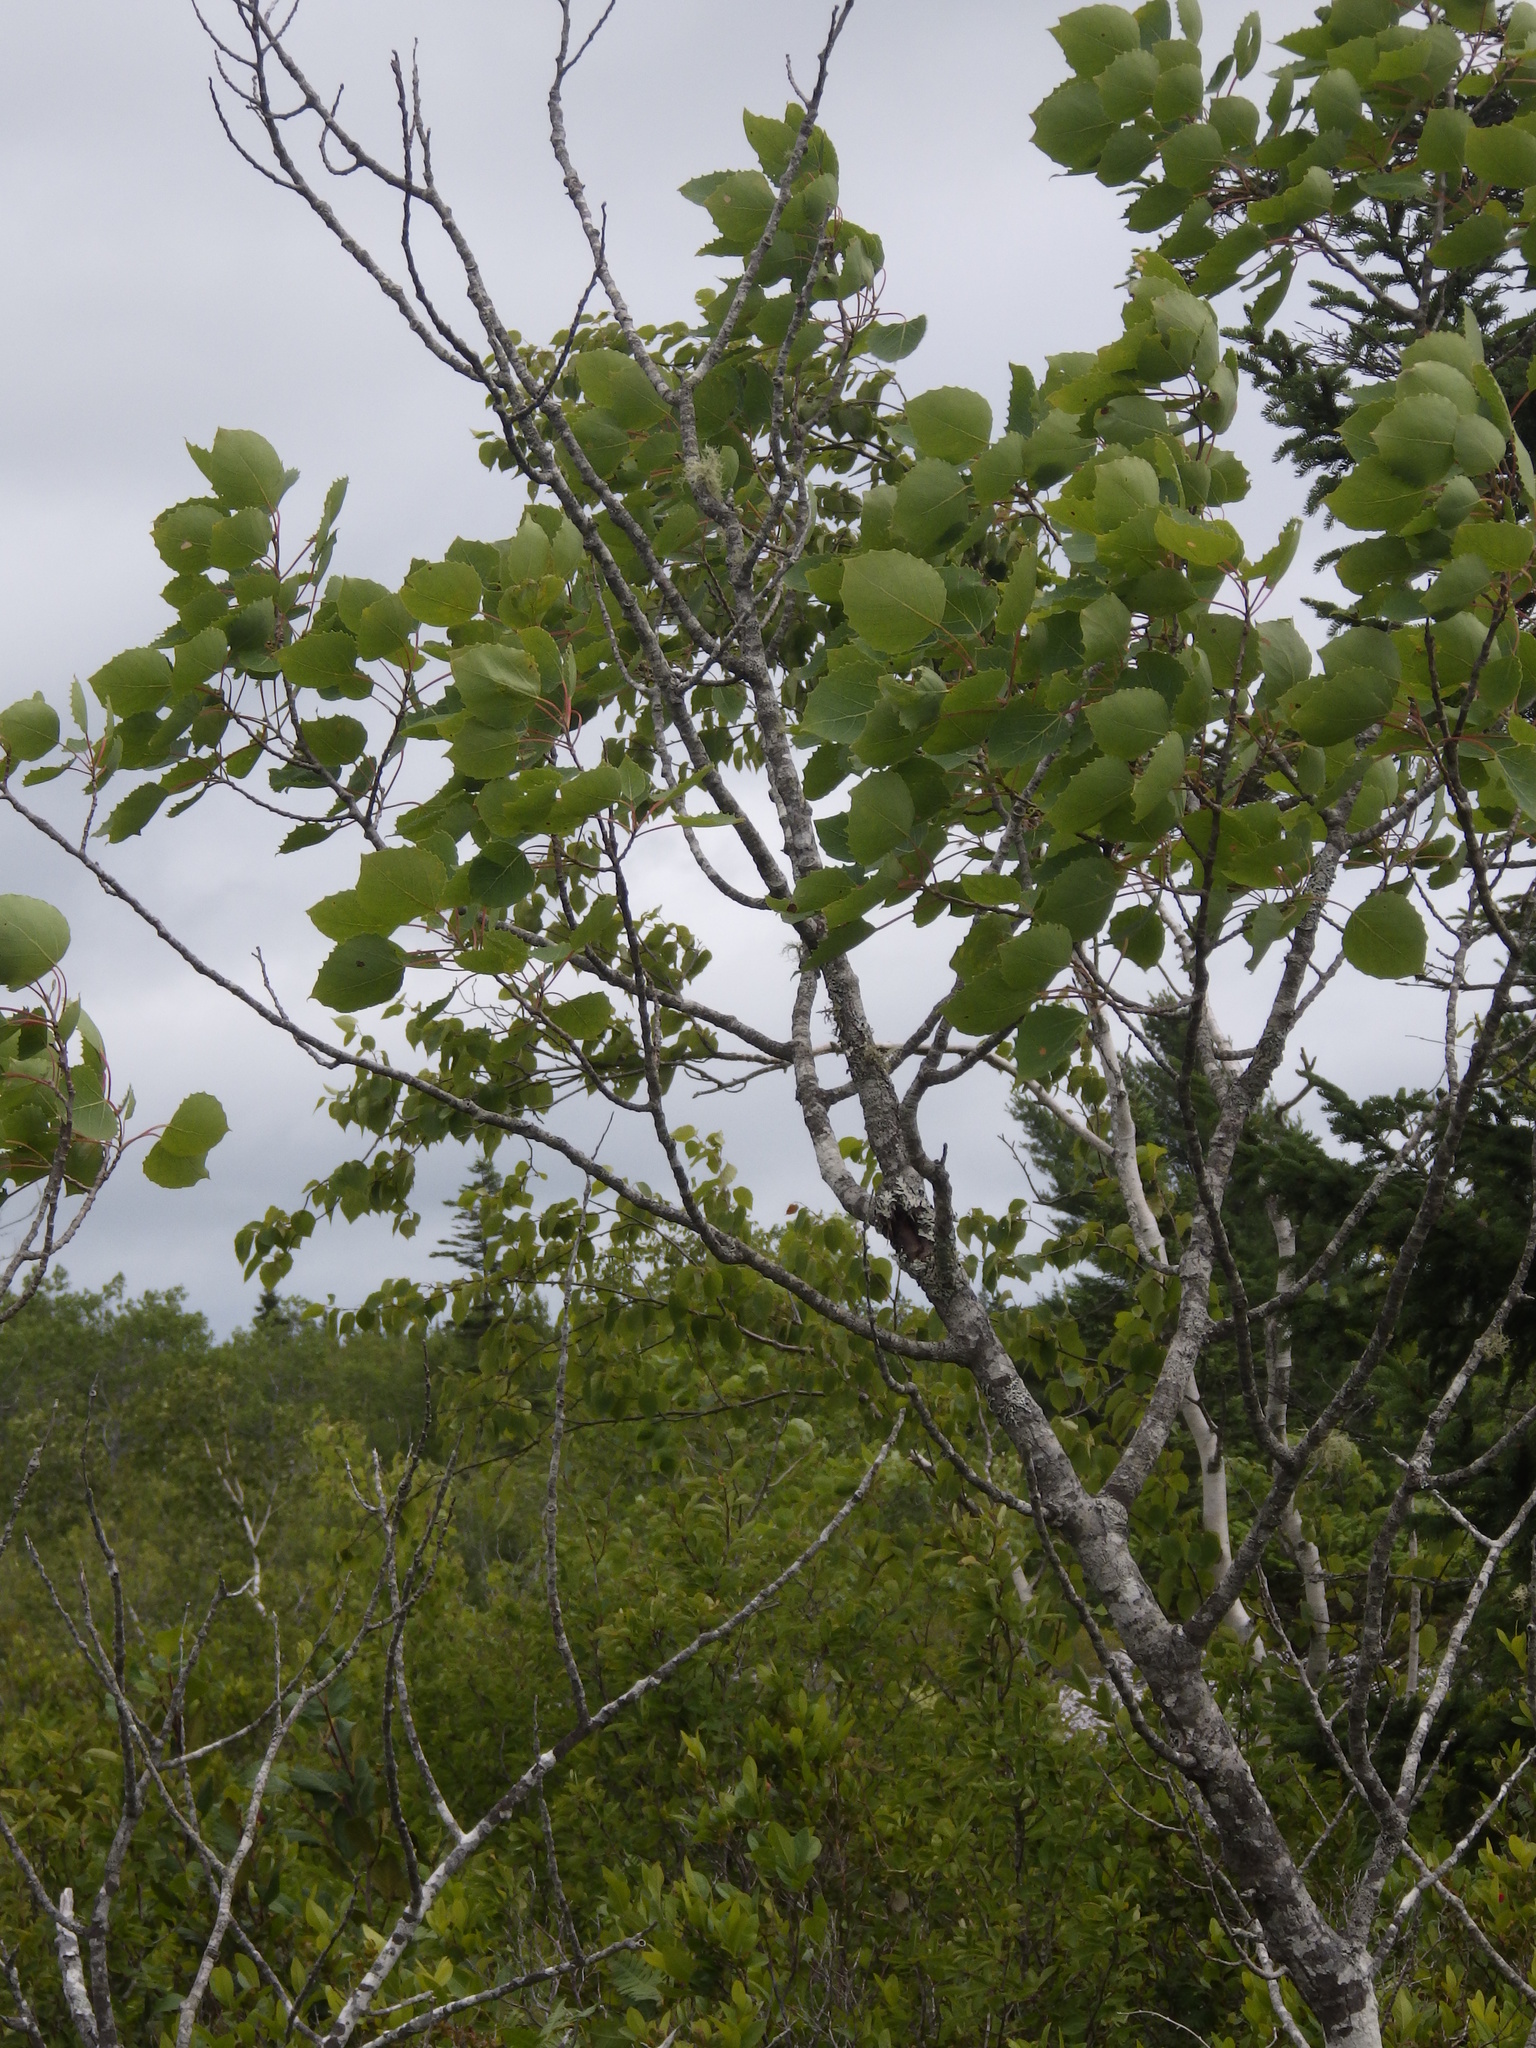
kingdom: Plantae
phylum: Tracheophyta
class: Magnoliopsida
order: Malpighiales
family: Salicaceae
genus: Populus
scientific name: Populus grandidentata
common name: Bigtooth aspen
